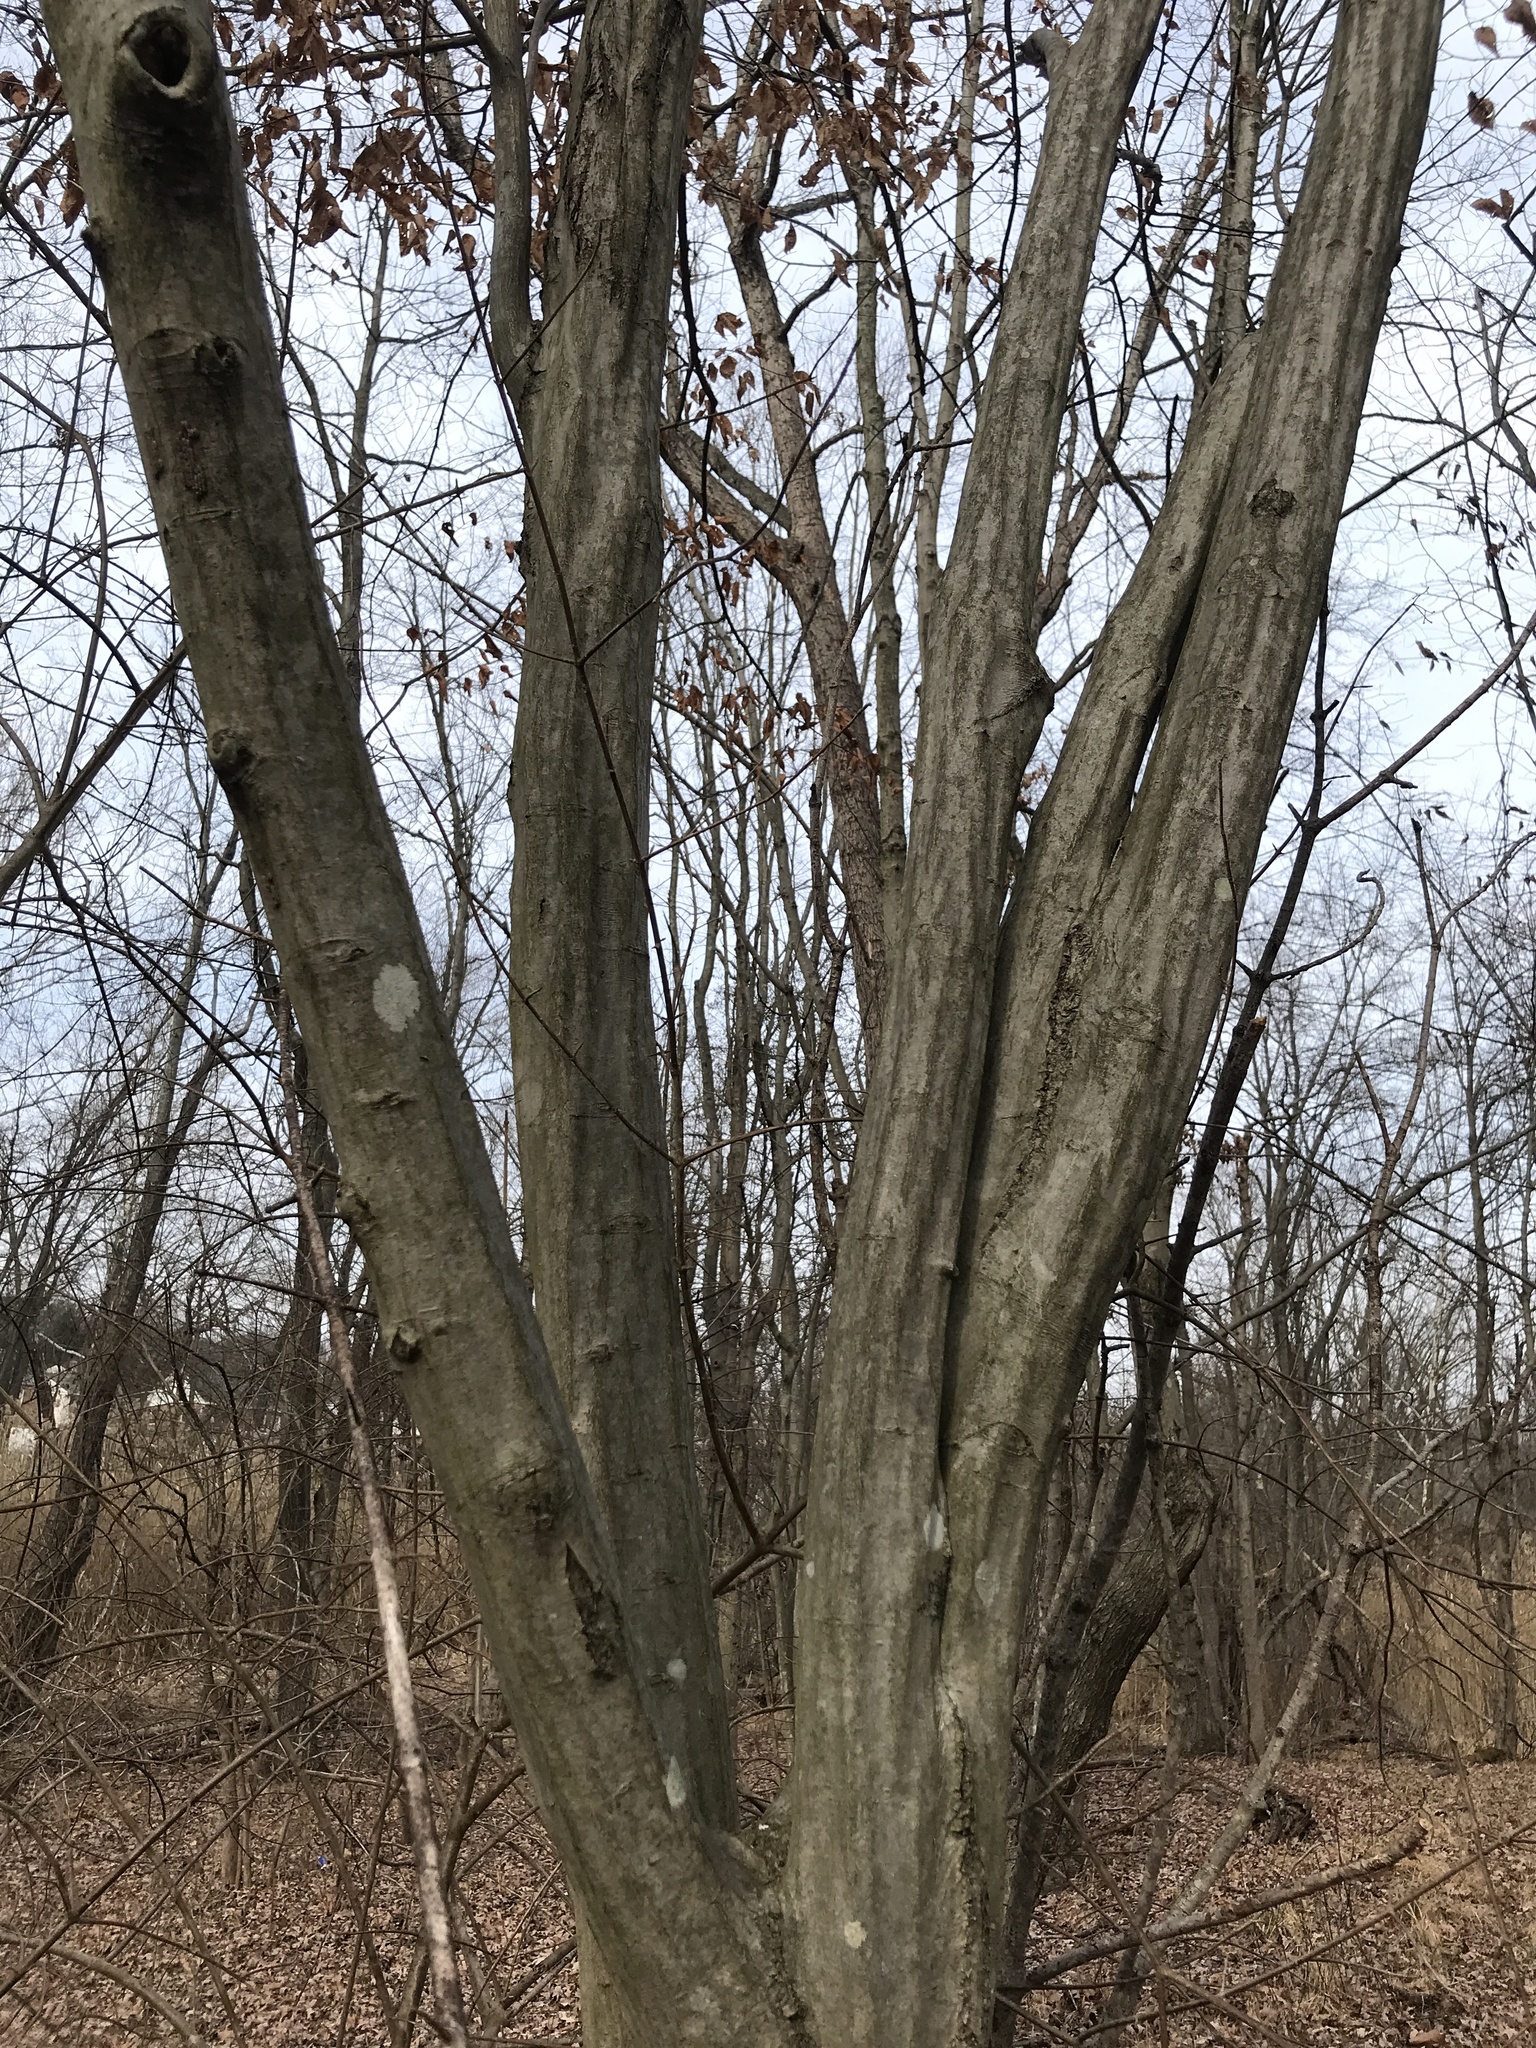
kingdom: Plantae
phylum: Tracheophyta
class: Magnoliopsida
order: Fagales
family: Betulaceae
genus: Carpinus
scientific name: Carpinus caroliniana
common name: American hornbeam
